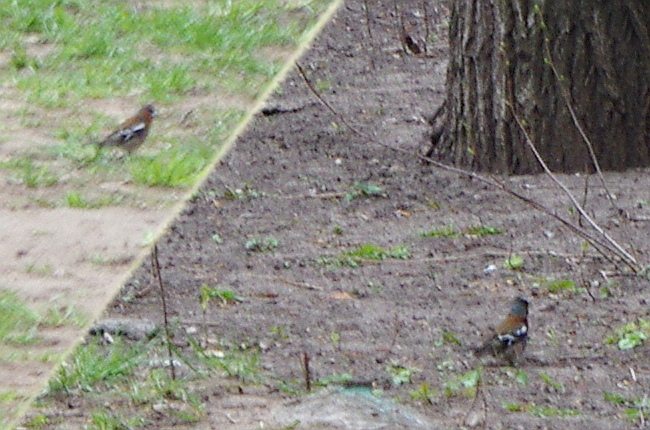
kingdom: Animalia
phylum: Chordata
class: Aves
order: Passeriformes
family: Fringillidae
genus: Fringilla
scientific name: Fringilla coelebs
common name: Common chaffinch
